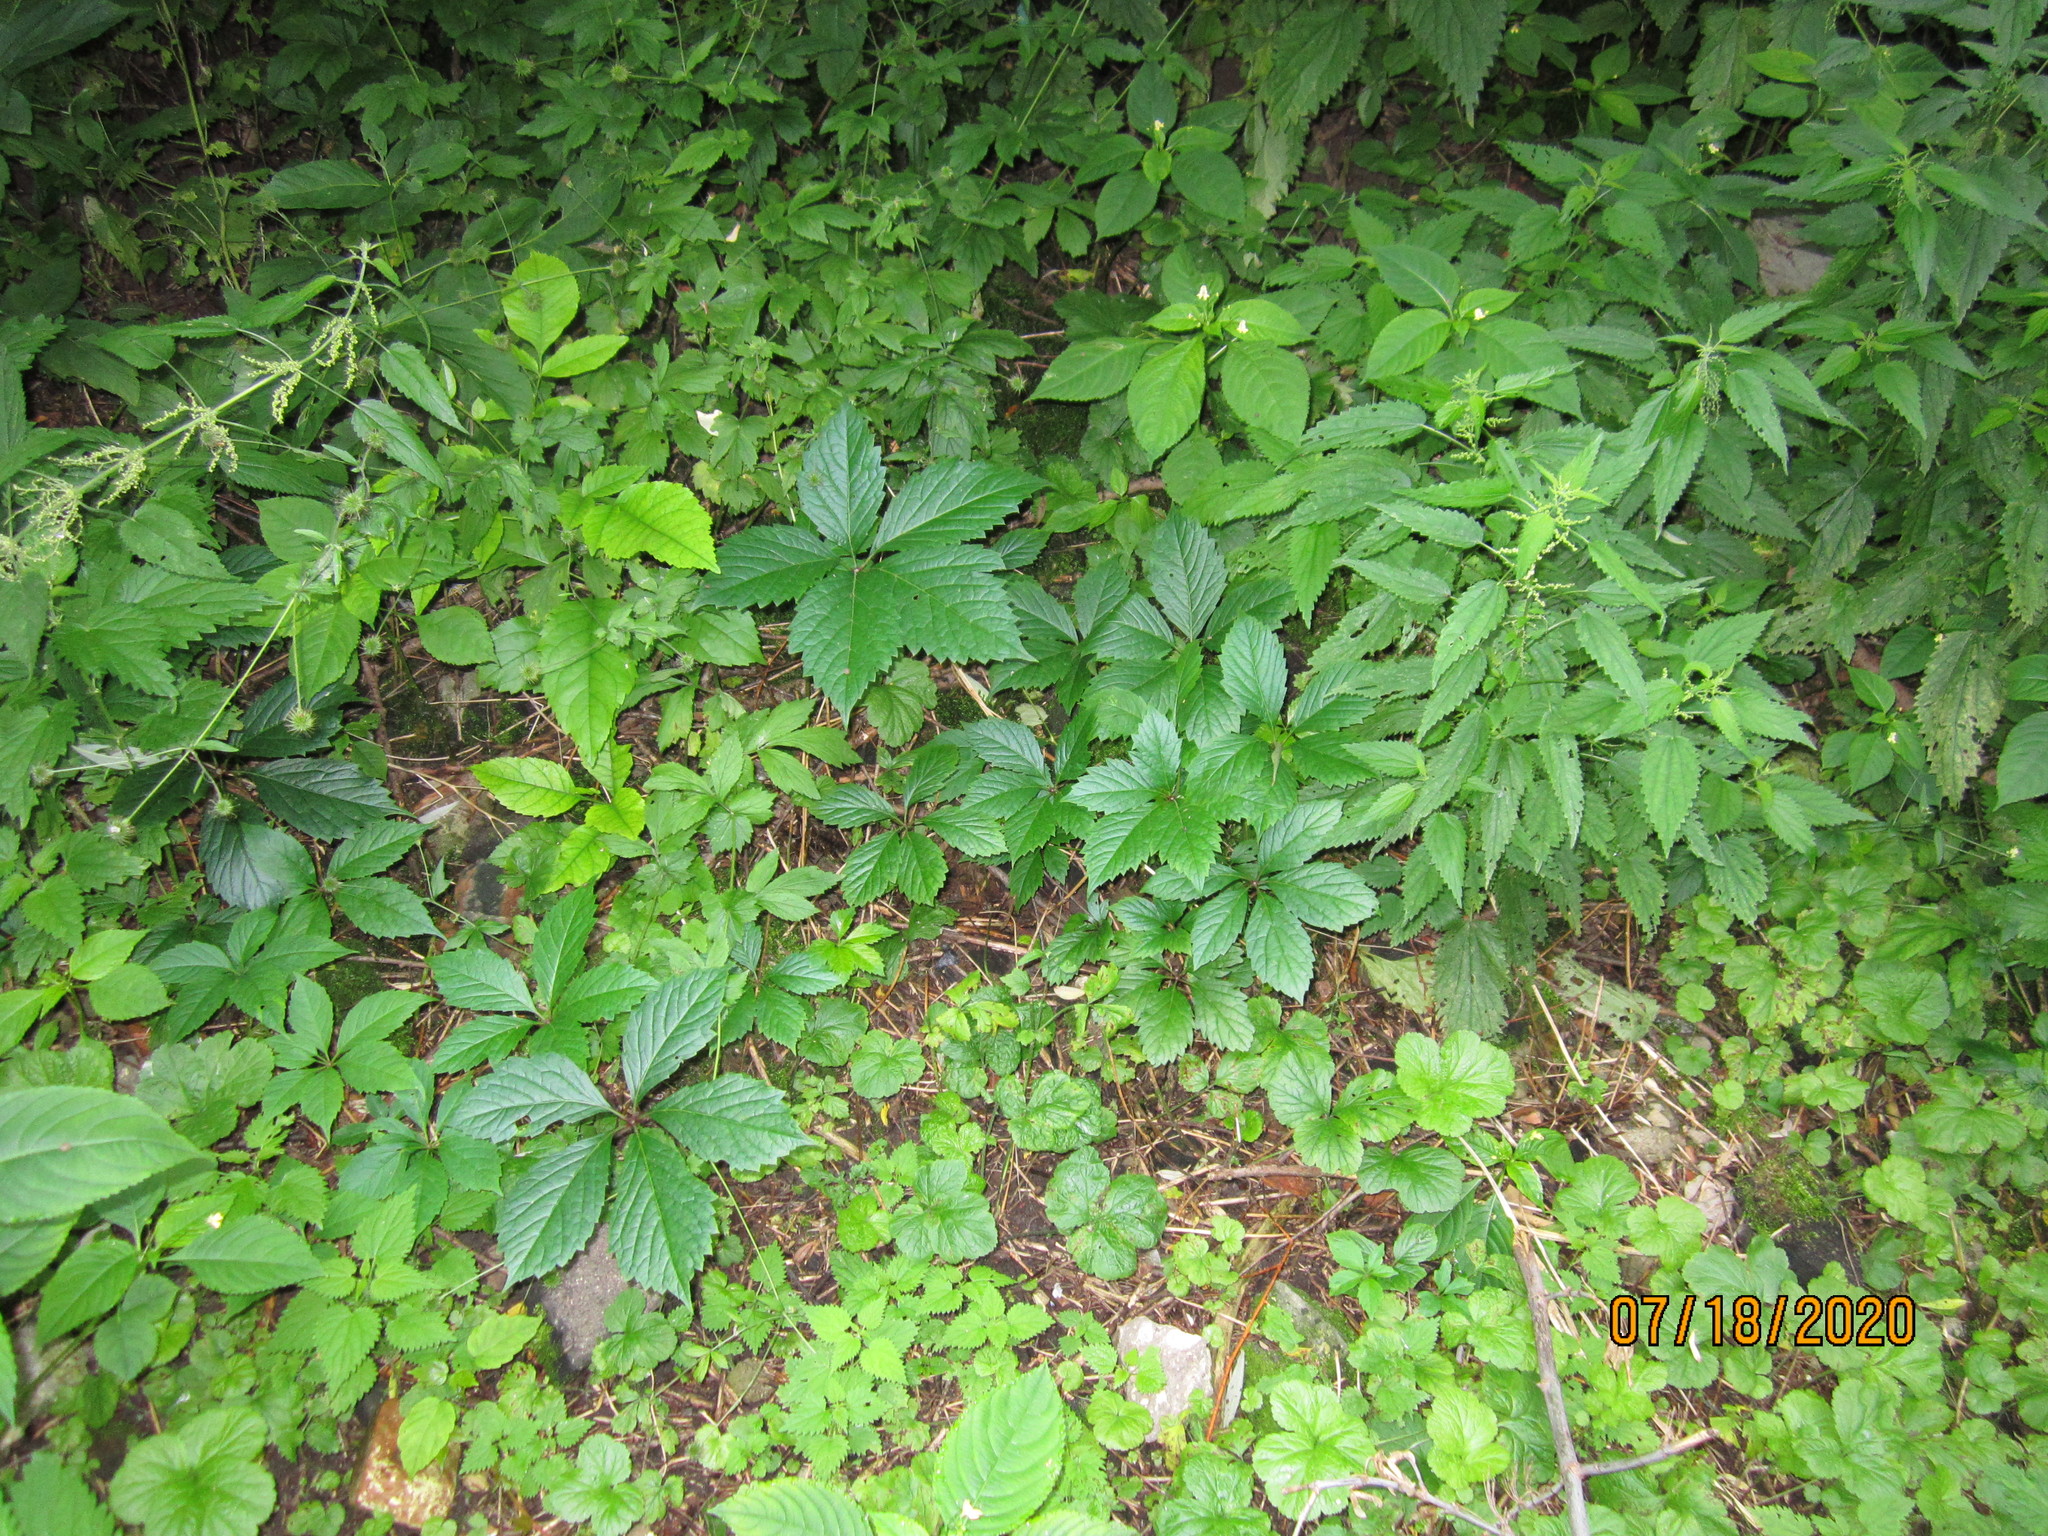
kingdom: Plantae
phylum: Tracheophyta
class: Magnoliopsida
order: Vitales
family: Vitaceae
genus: Parthenocissus
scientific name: Parthenocissus inserta
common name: False virginia-creeper
